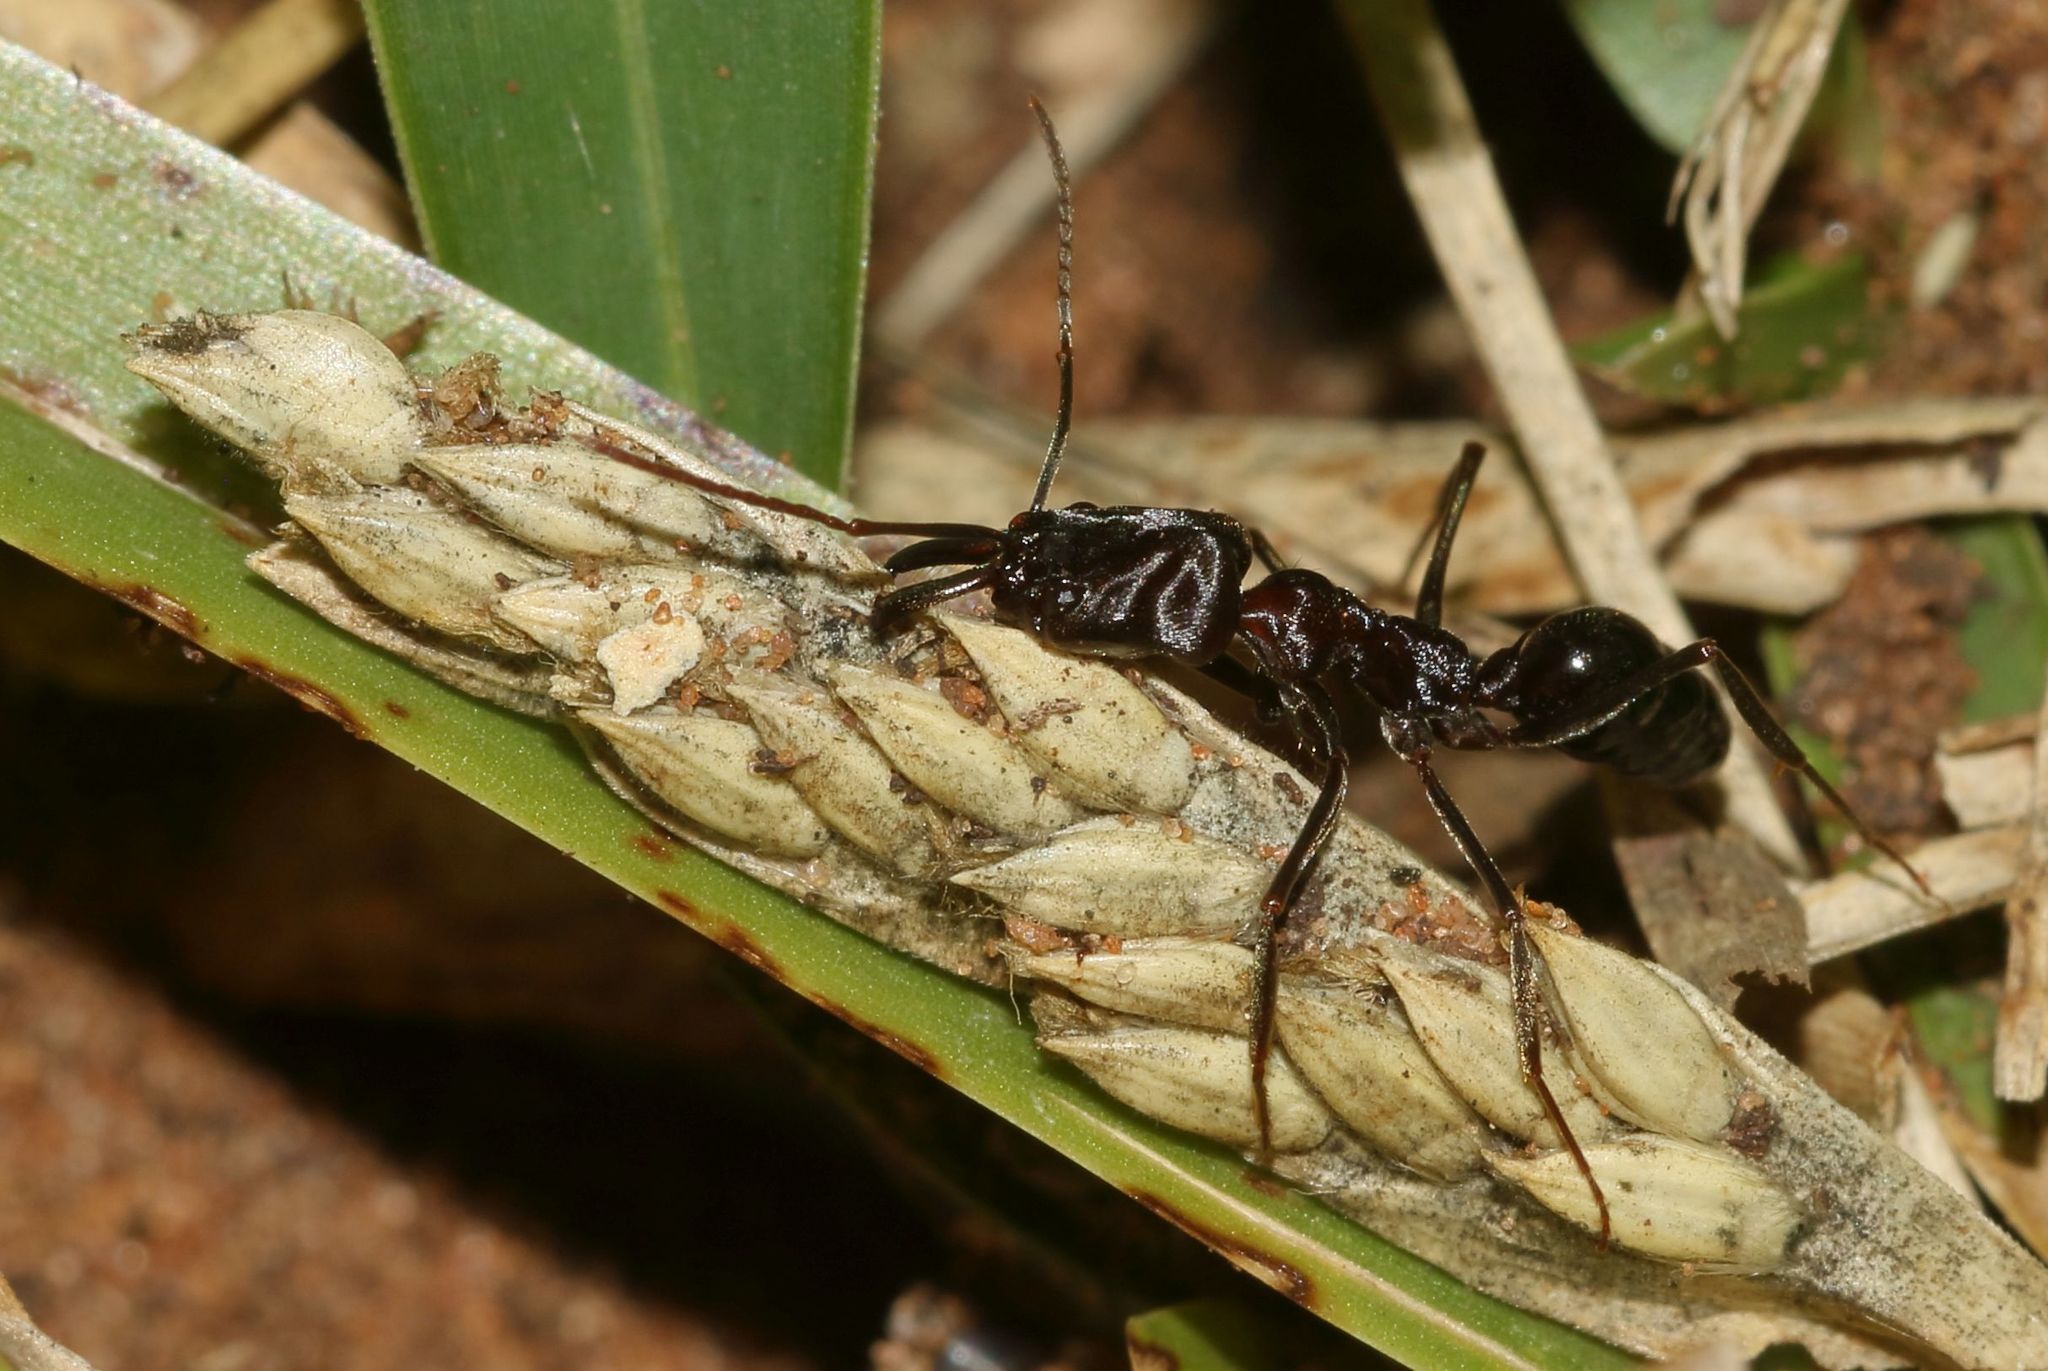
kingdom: Animalia
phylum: Arthropoda
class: Insecta
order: Hymenoptera
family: Formicidae
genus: Odontomachus
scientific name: Odontomachus troglodytes
